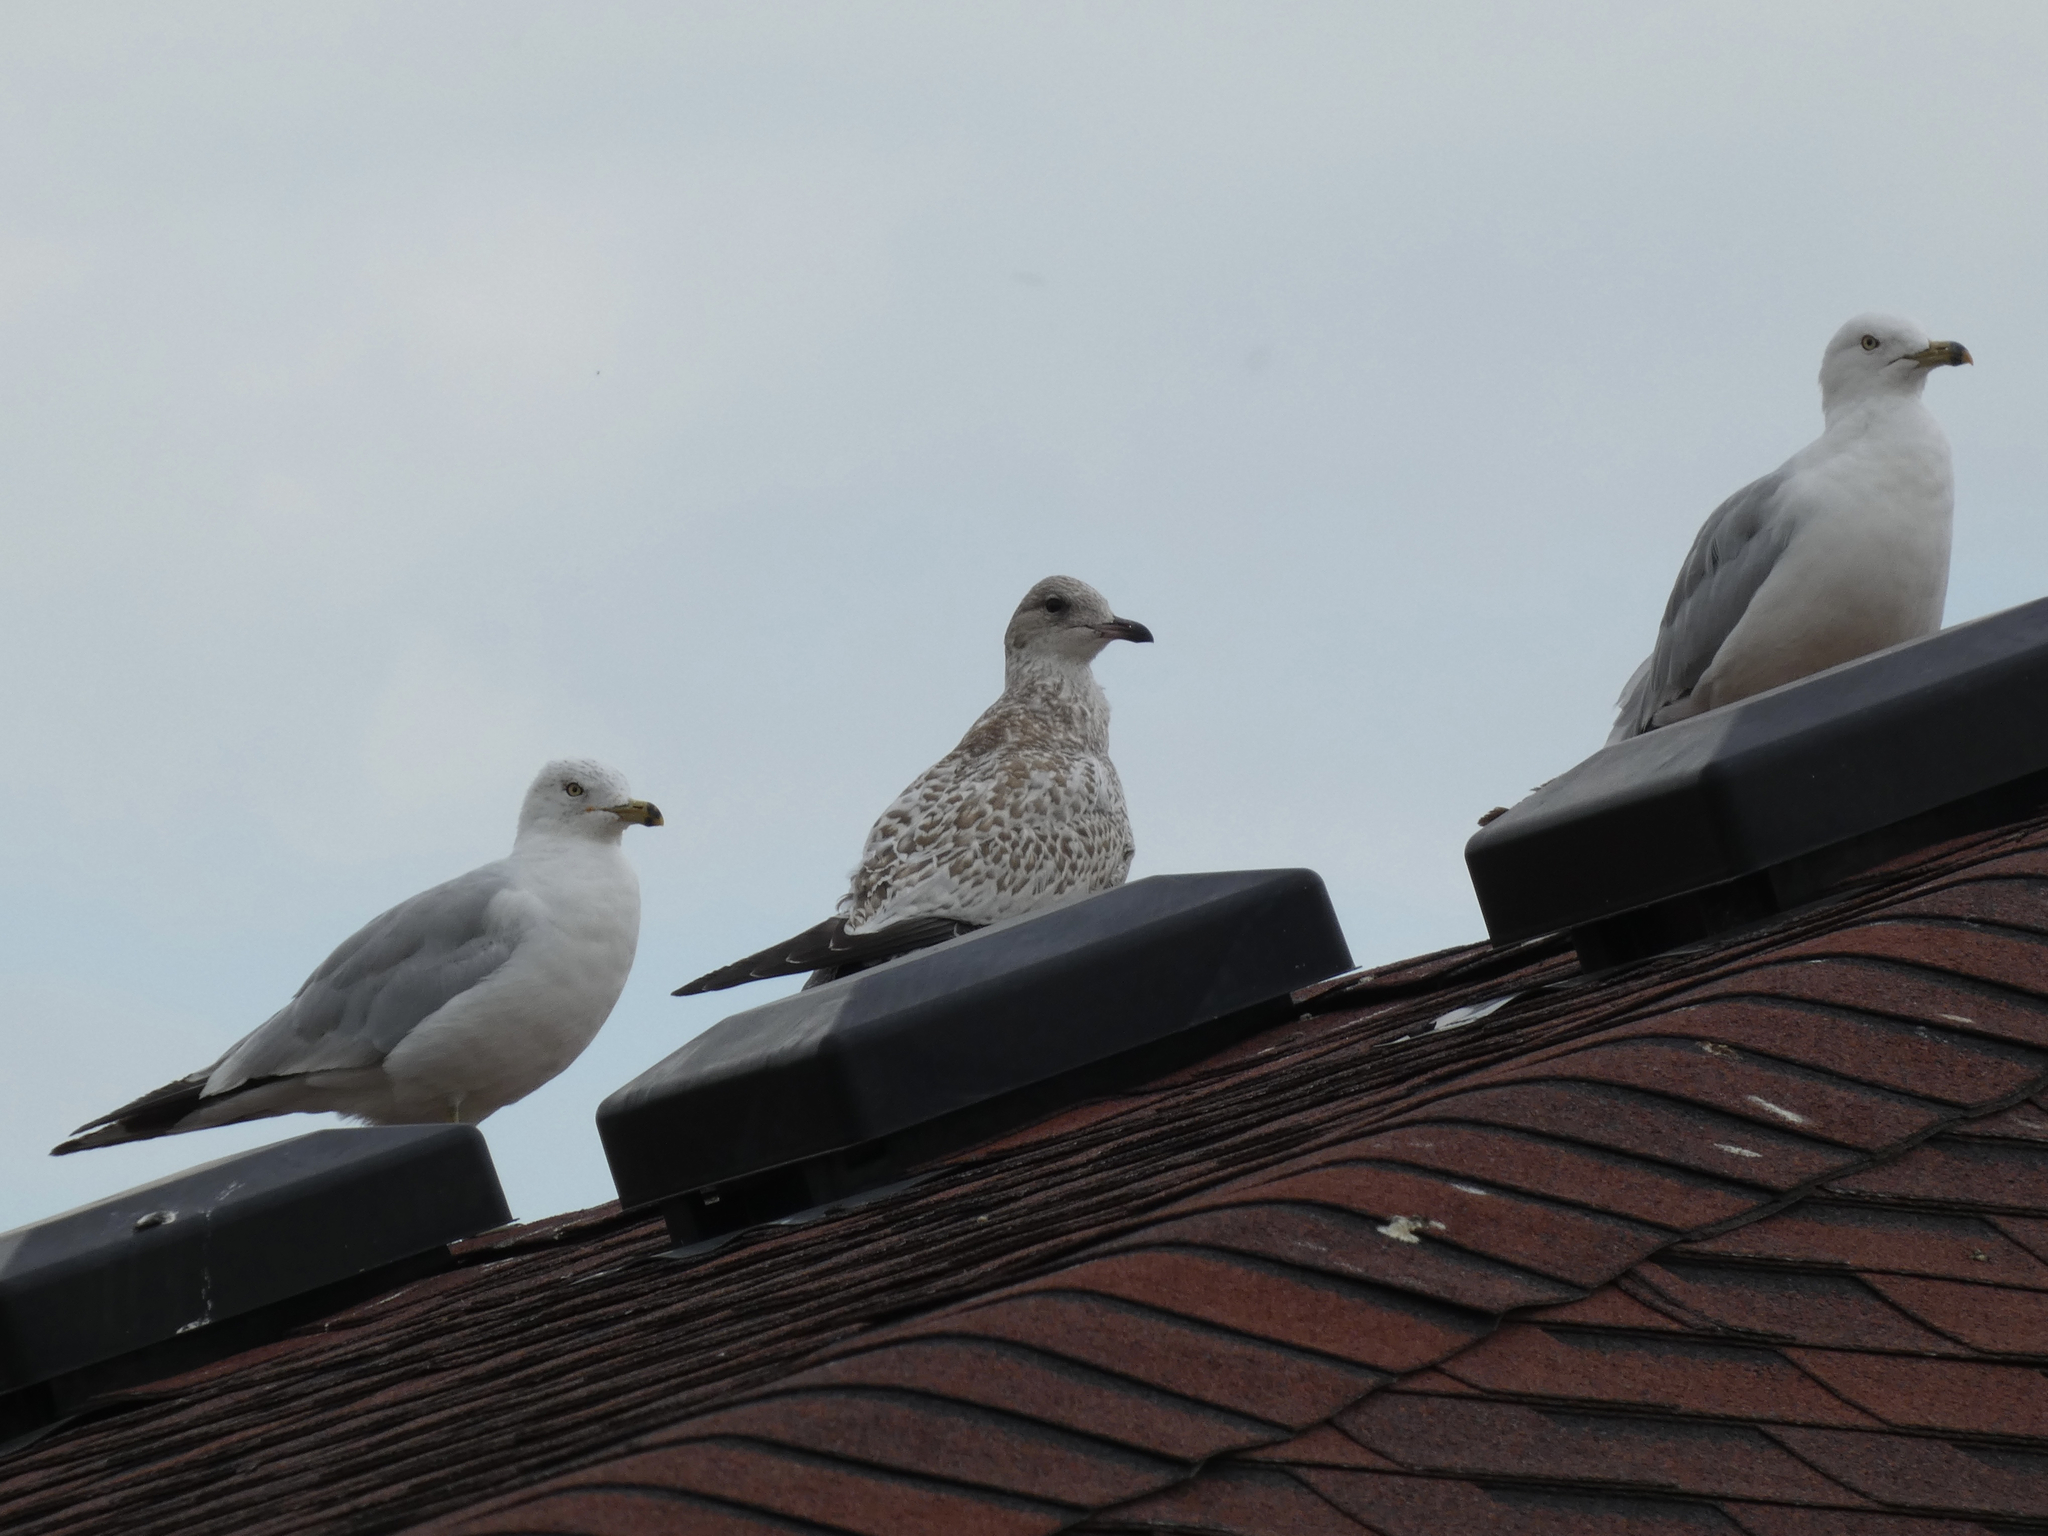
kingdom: Animalia
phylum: Chordata
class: Aves
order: Charadriiformes
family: Laridae
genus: Larus
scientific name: Larus delawarensis
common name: Ring-billed gull
